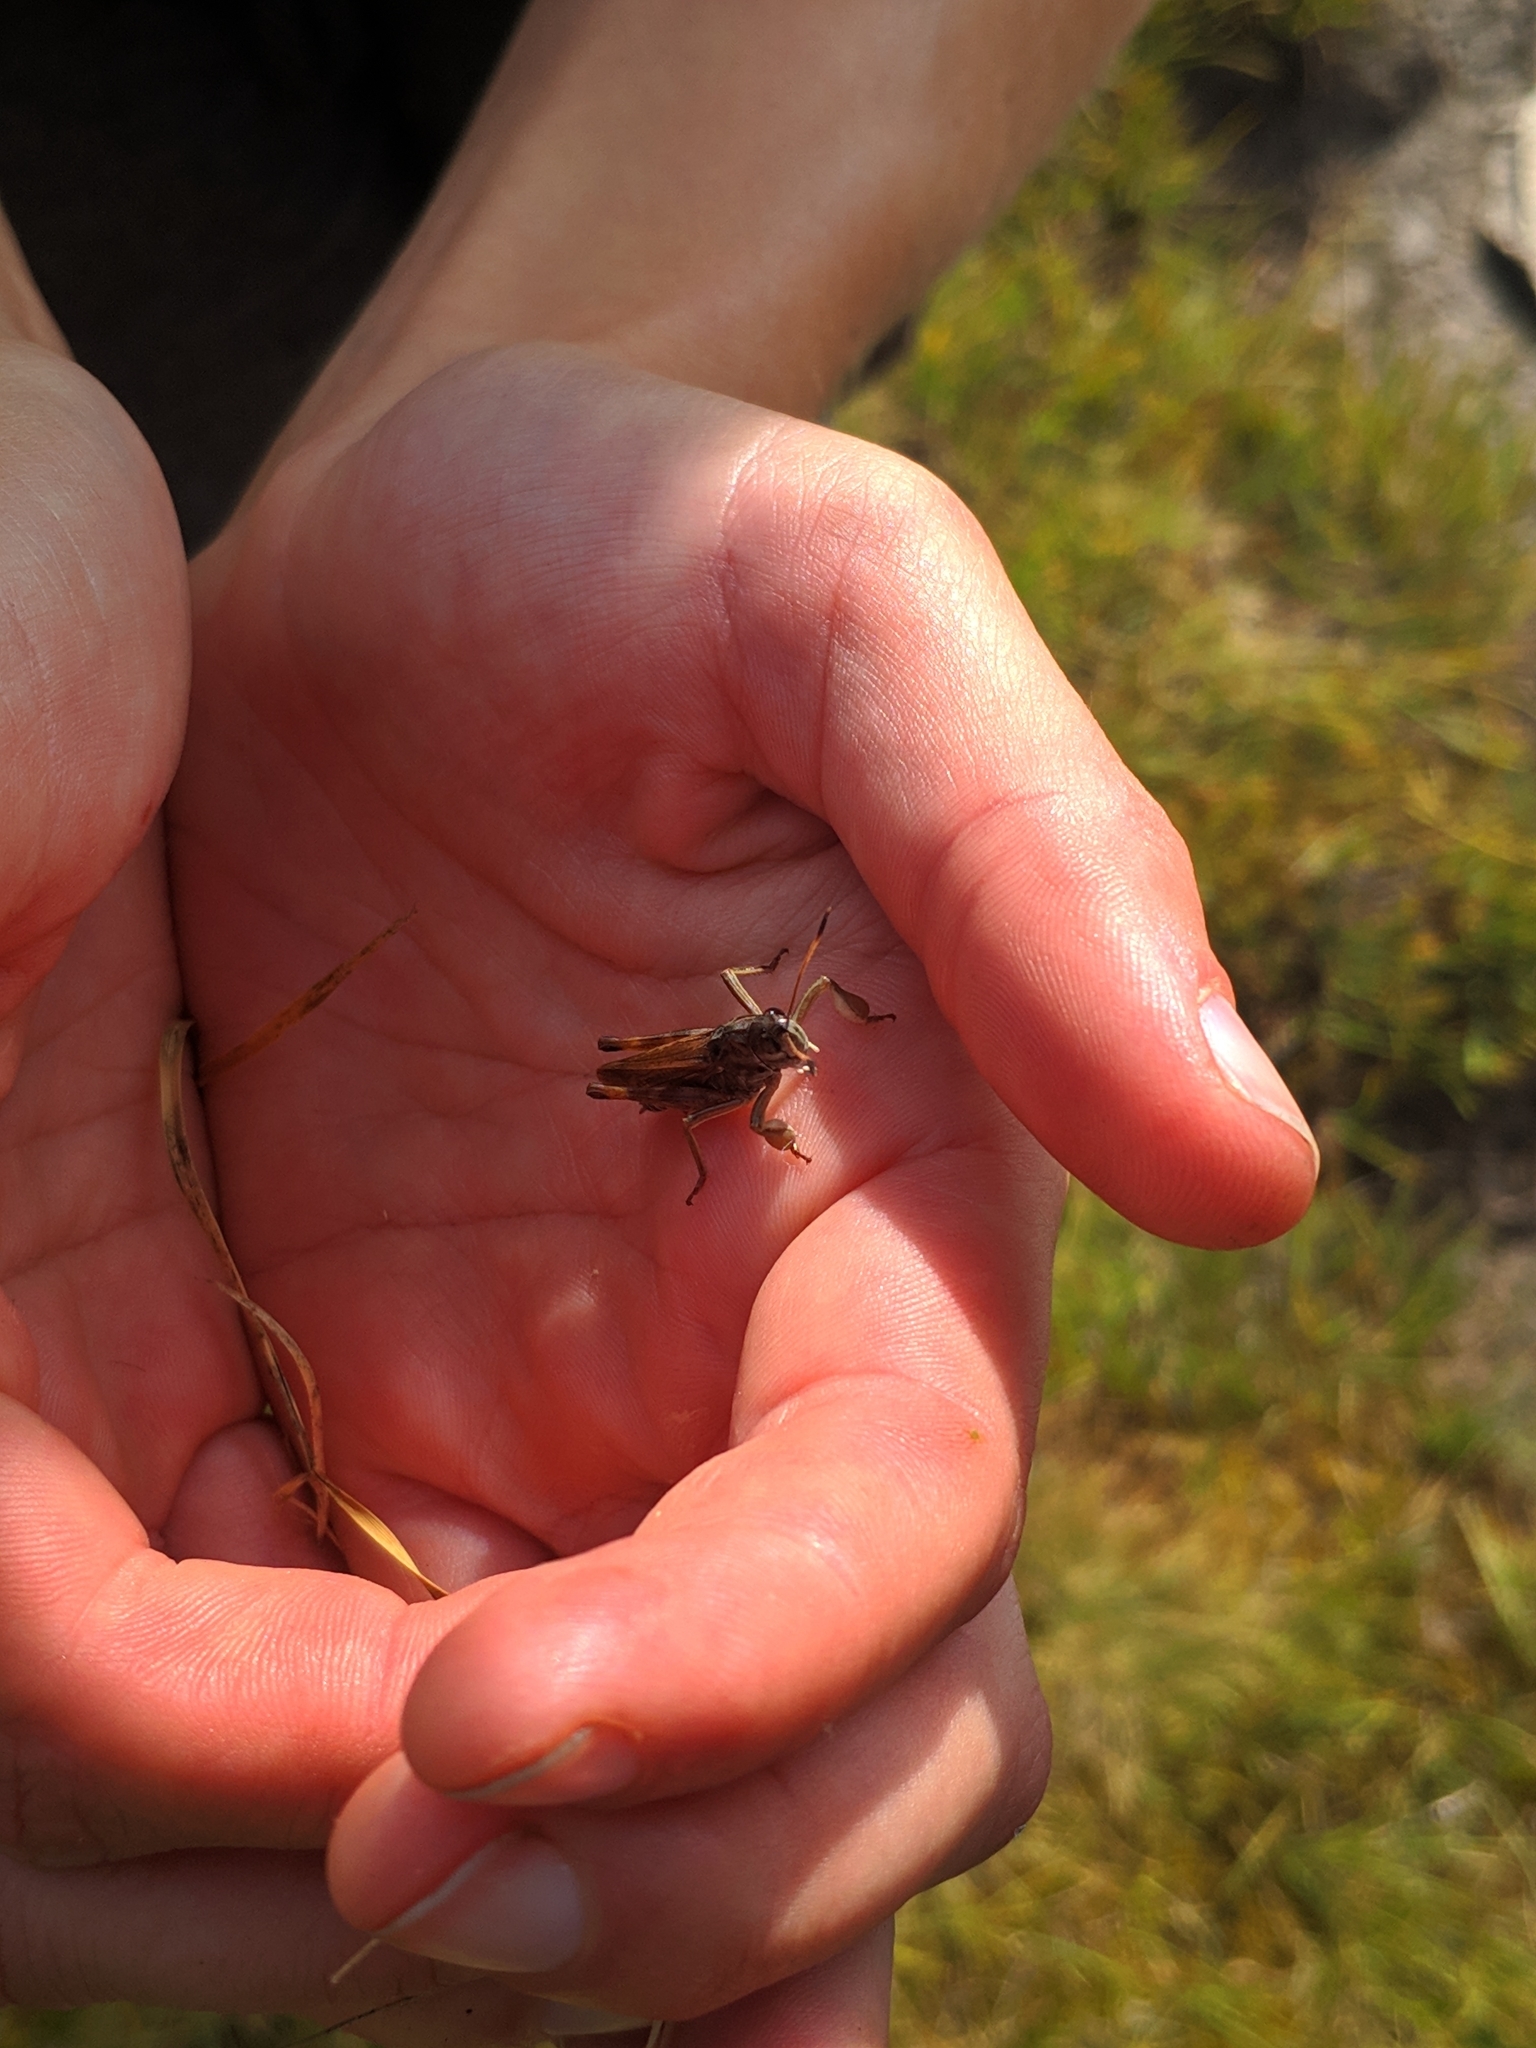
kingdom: Animalia
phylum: Arthropoda
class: Insecta
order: Orthoptera
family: Acrididae
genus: Gomphocerus
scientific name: Gomphocerus sibiricus
